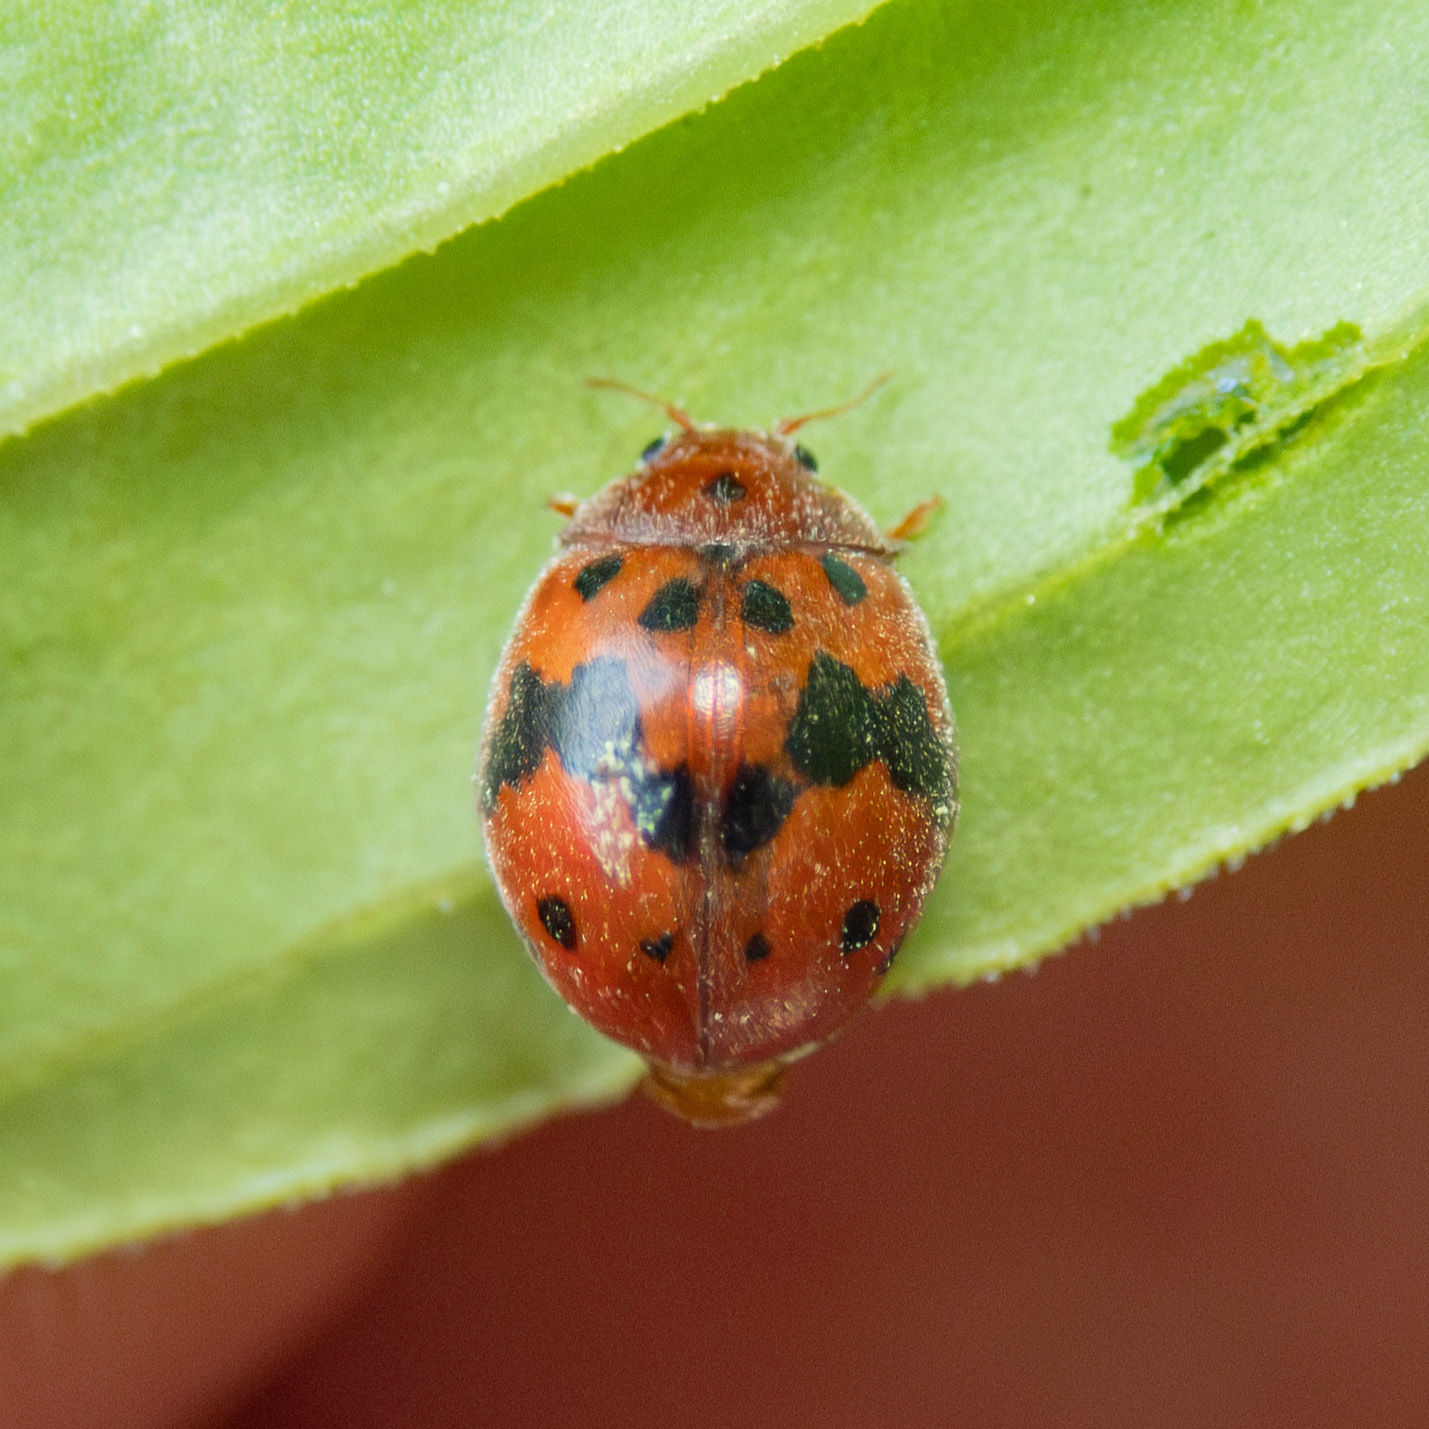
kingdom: Animalia
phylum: Arthropoda
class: Insecta
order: Coleoptera
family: Coccinellidae
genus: Subcoccinella
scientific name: Subcoccinella vigintiquatuorpunctata
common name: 24-spot ladybird
